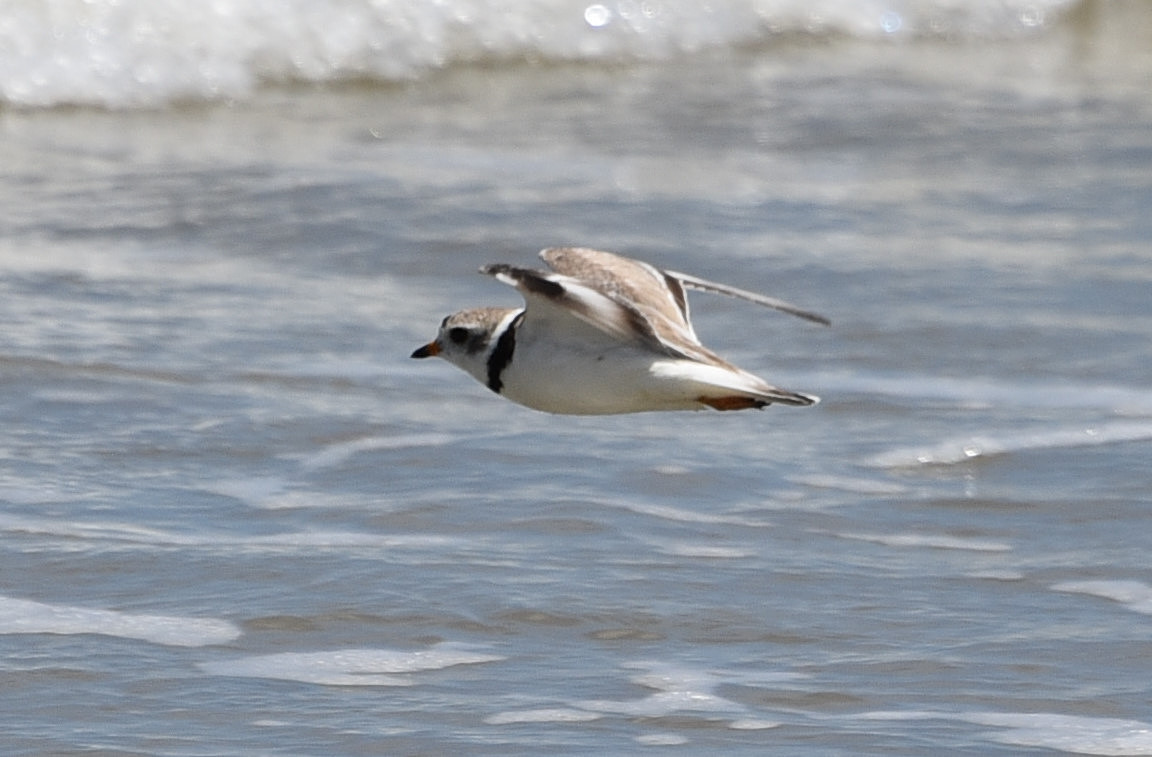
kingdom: Animalia
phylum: Chordata
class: Aves
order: Charadriiformes
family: Charadriidae
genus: Charadrius
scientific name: Charadrius melodus
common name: Piping plover
